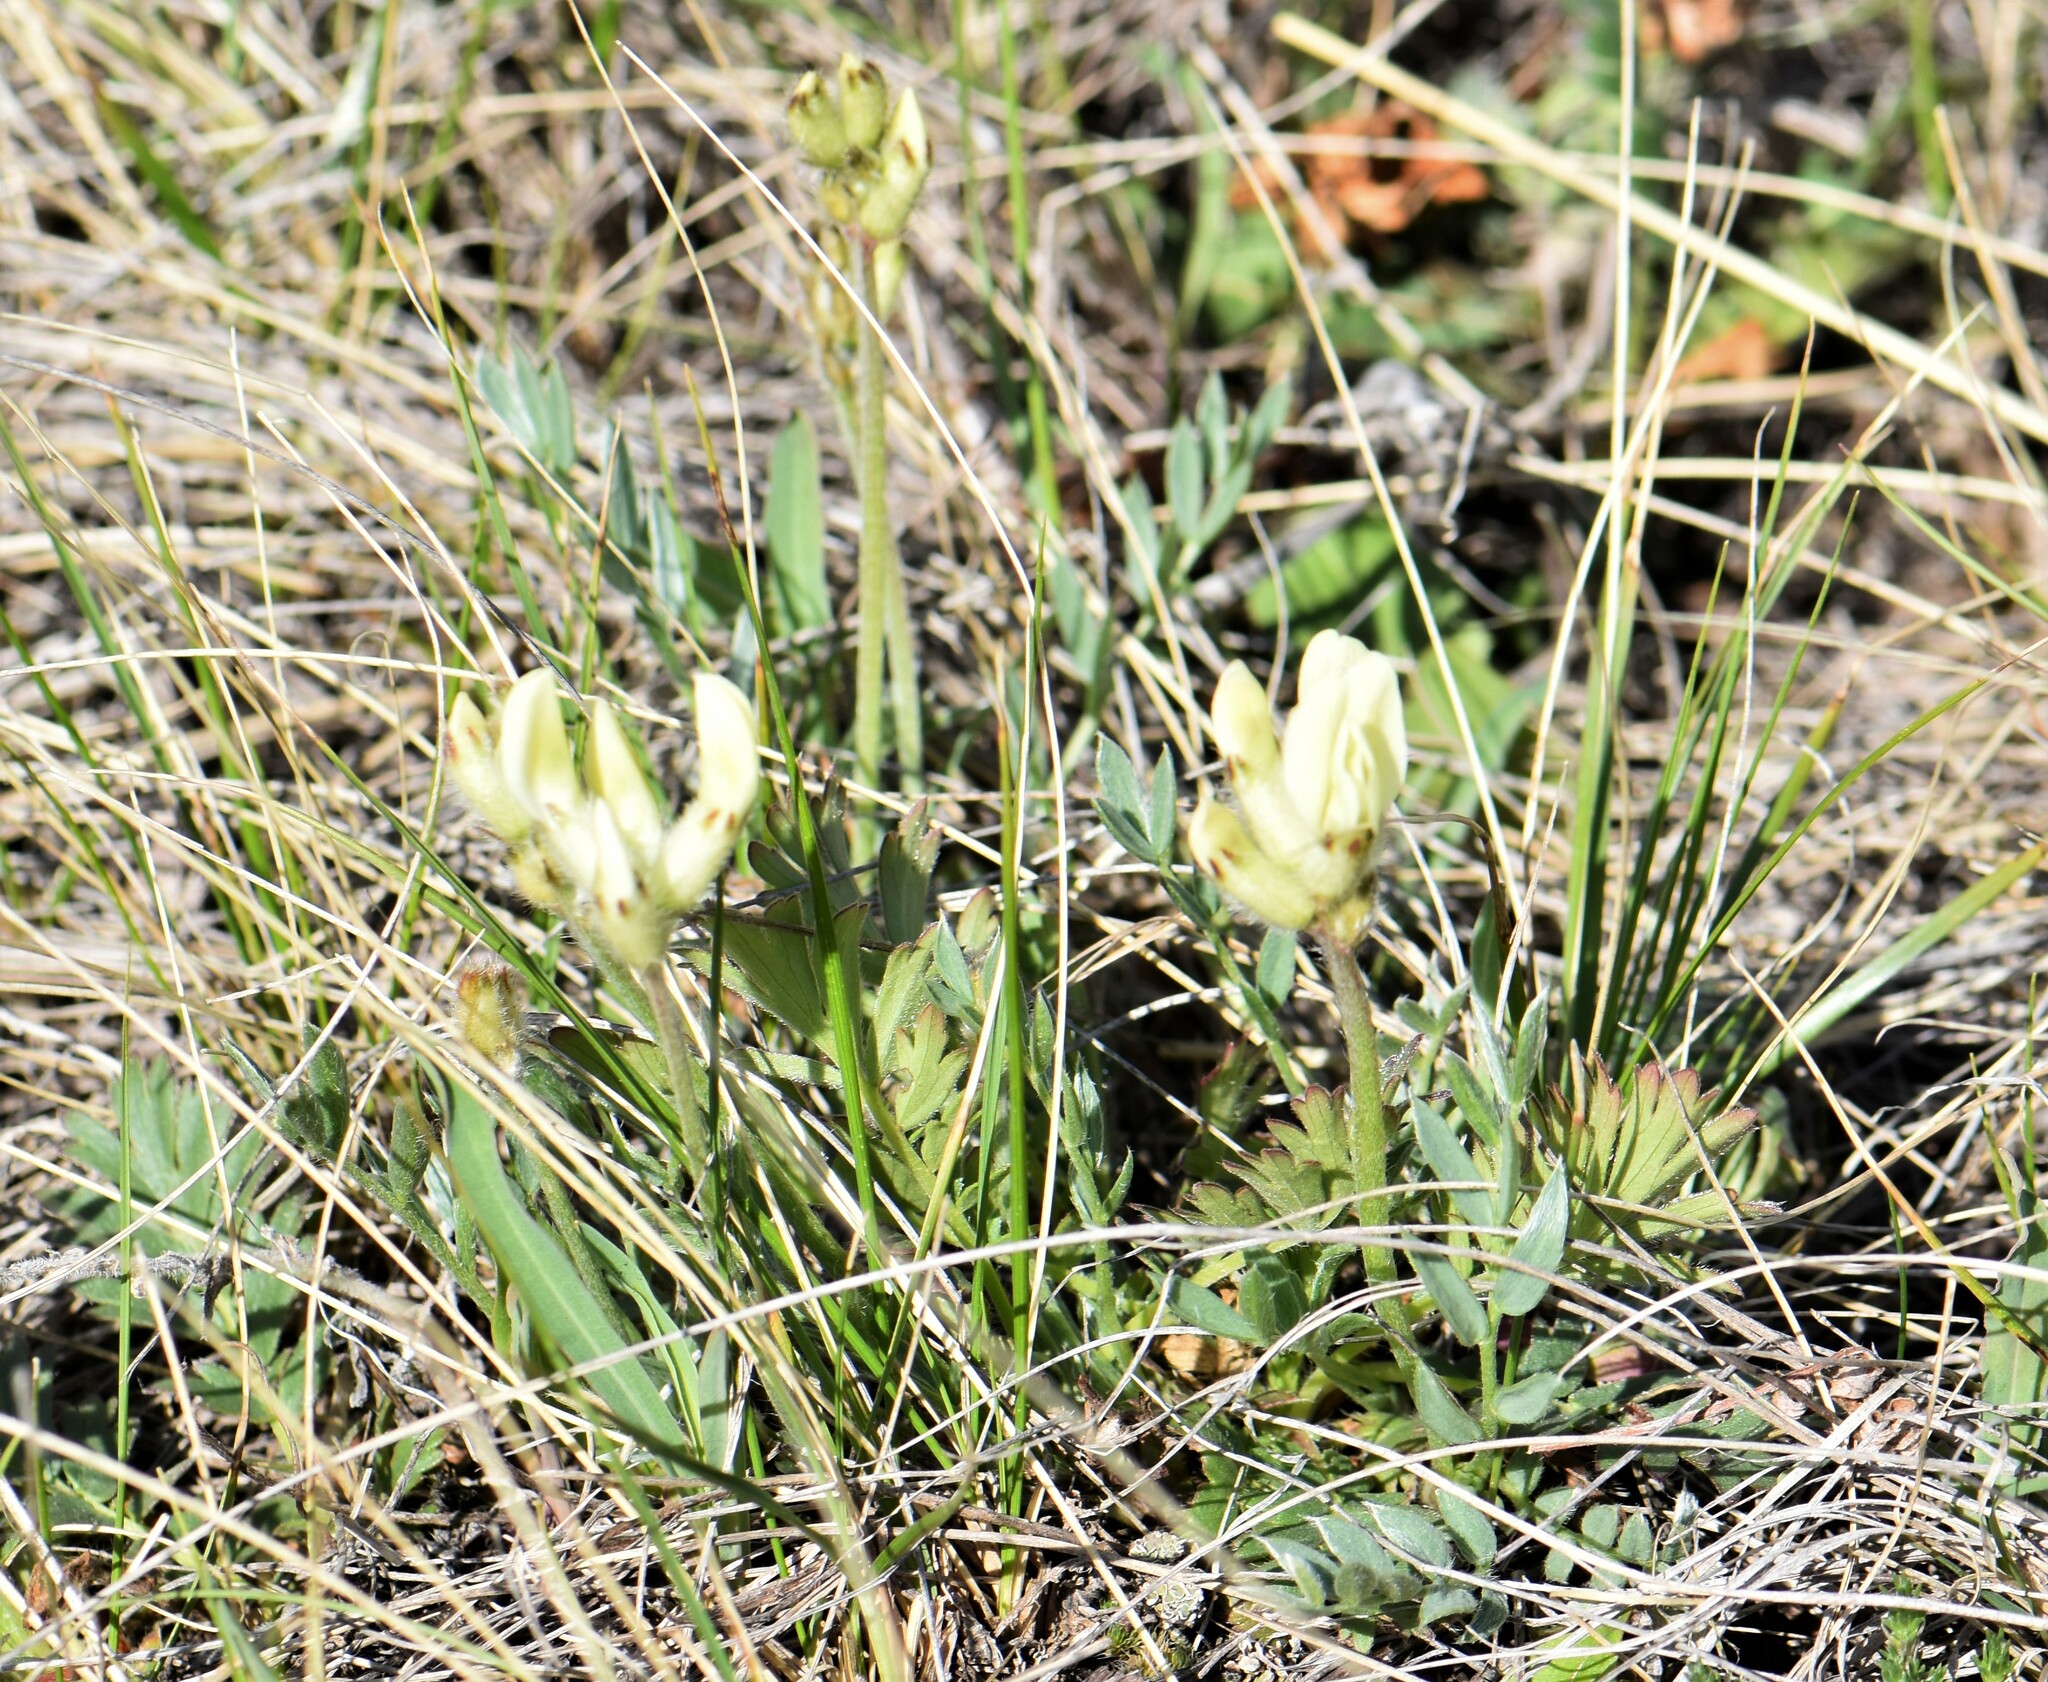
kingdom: Plantae
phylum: Tracheophyta
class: Magnoliopsida
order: Fabales
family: Fabaceae
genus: Oxytropis
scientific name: Oxytropis sericea
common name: Silky locoweed
